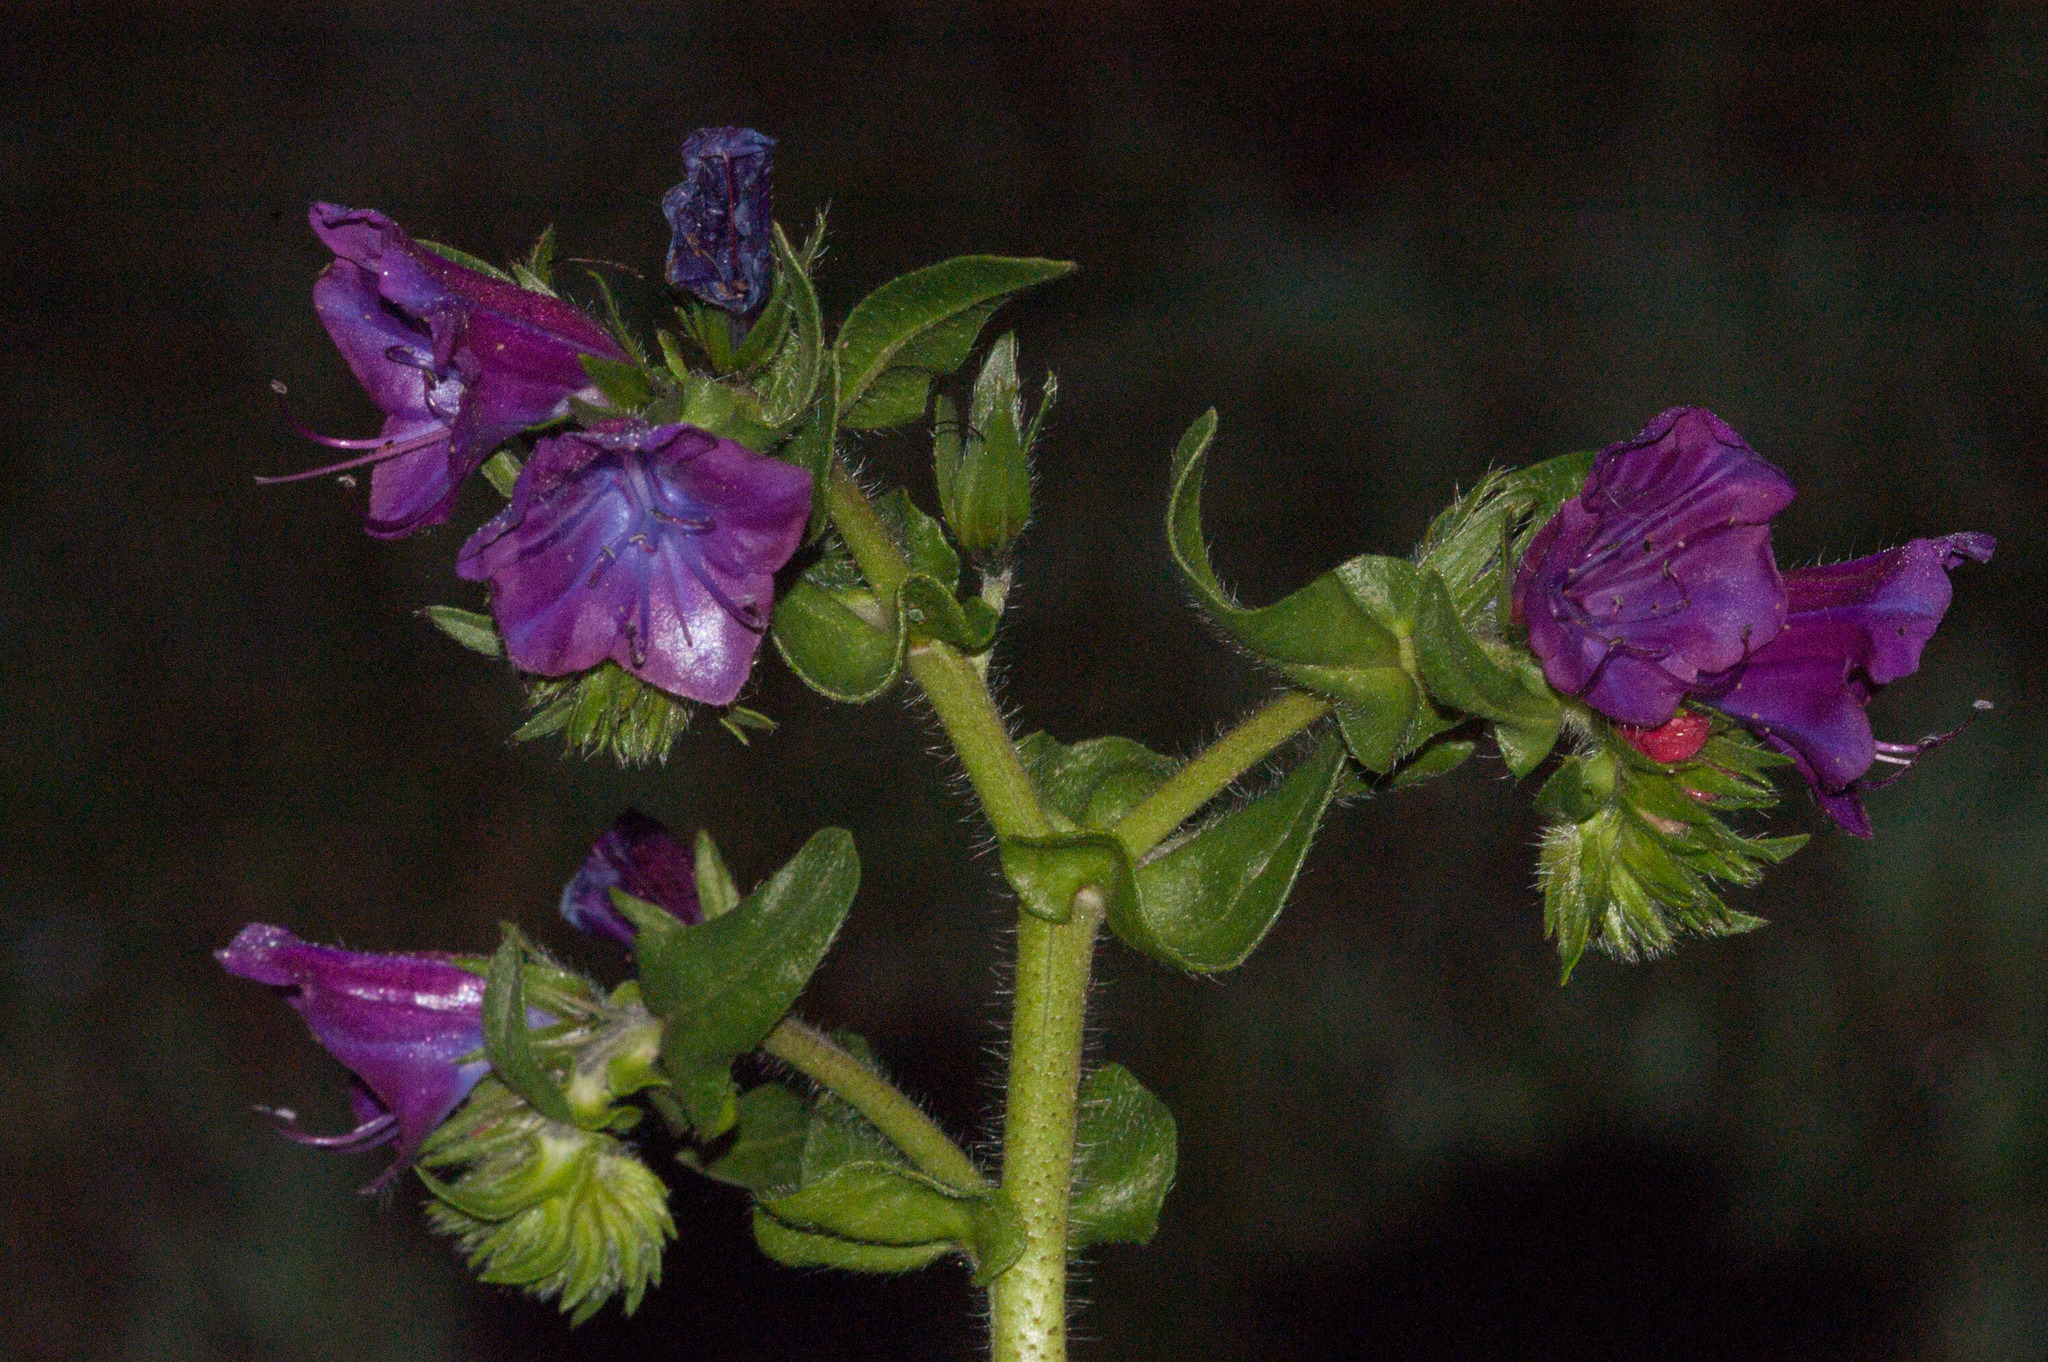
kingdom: Plantae
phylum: Tracheophyta
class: Magnoliopsida
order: Boraginales
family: Boraginaceae
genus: Echium
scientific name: Echium plantagineum
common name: Purple viper's-bugloss
